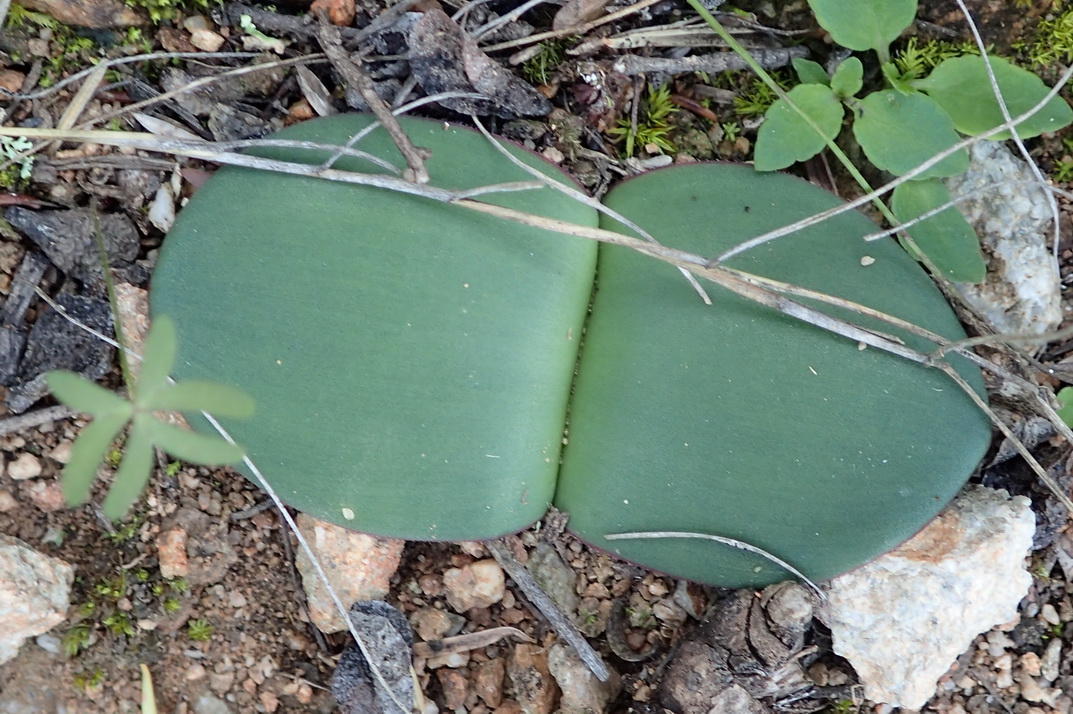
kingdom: Plantae
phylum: Tracheophyta
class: Liliopsida
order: Asparagales
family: Amaryllidaceae
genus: Haemanthus
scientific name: Haemanthus sanguineus
